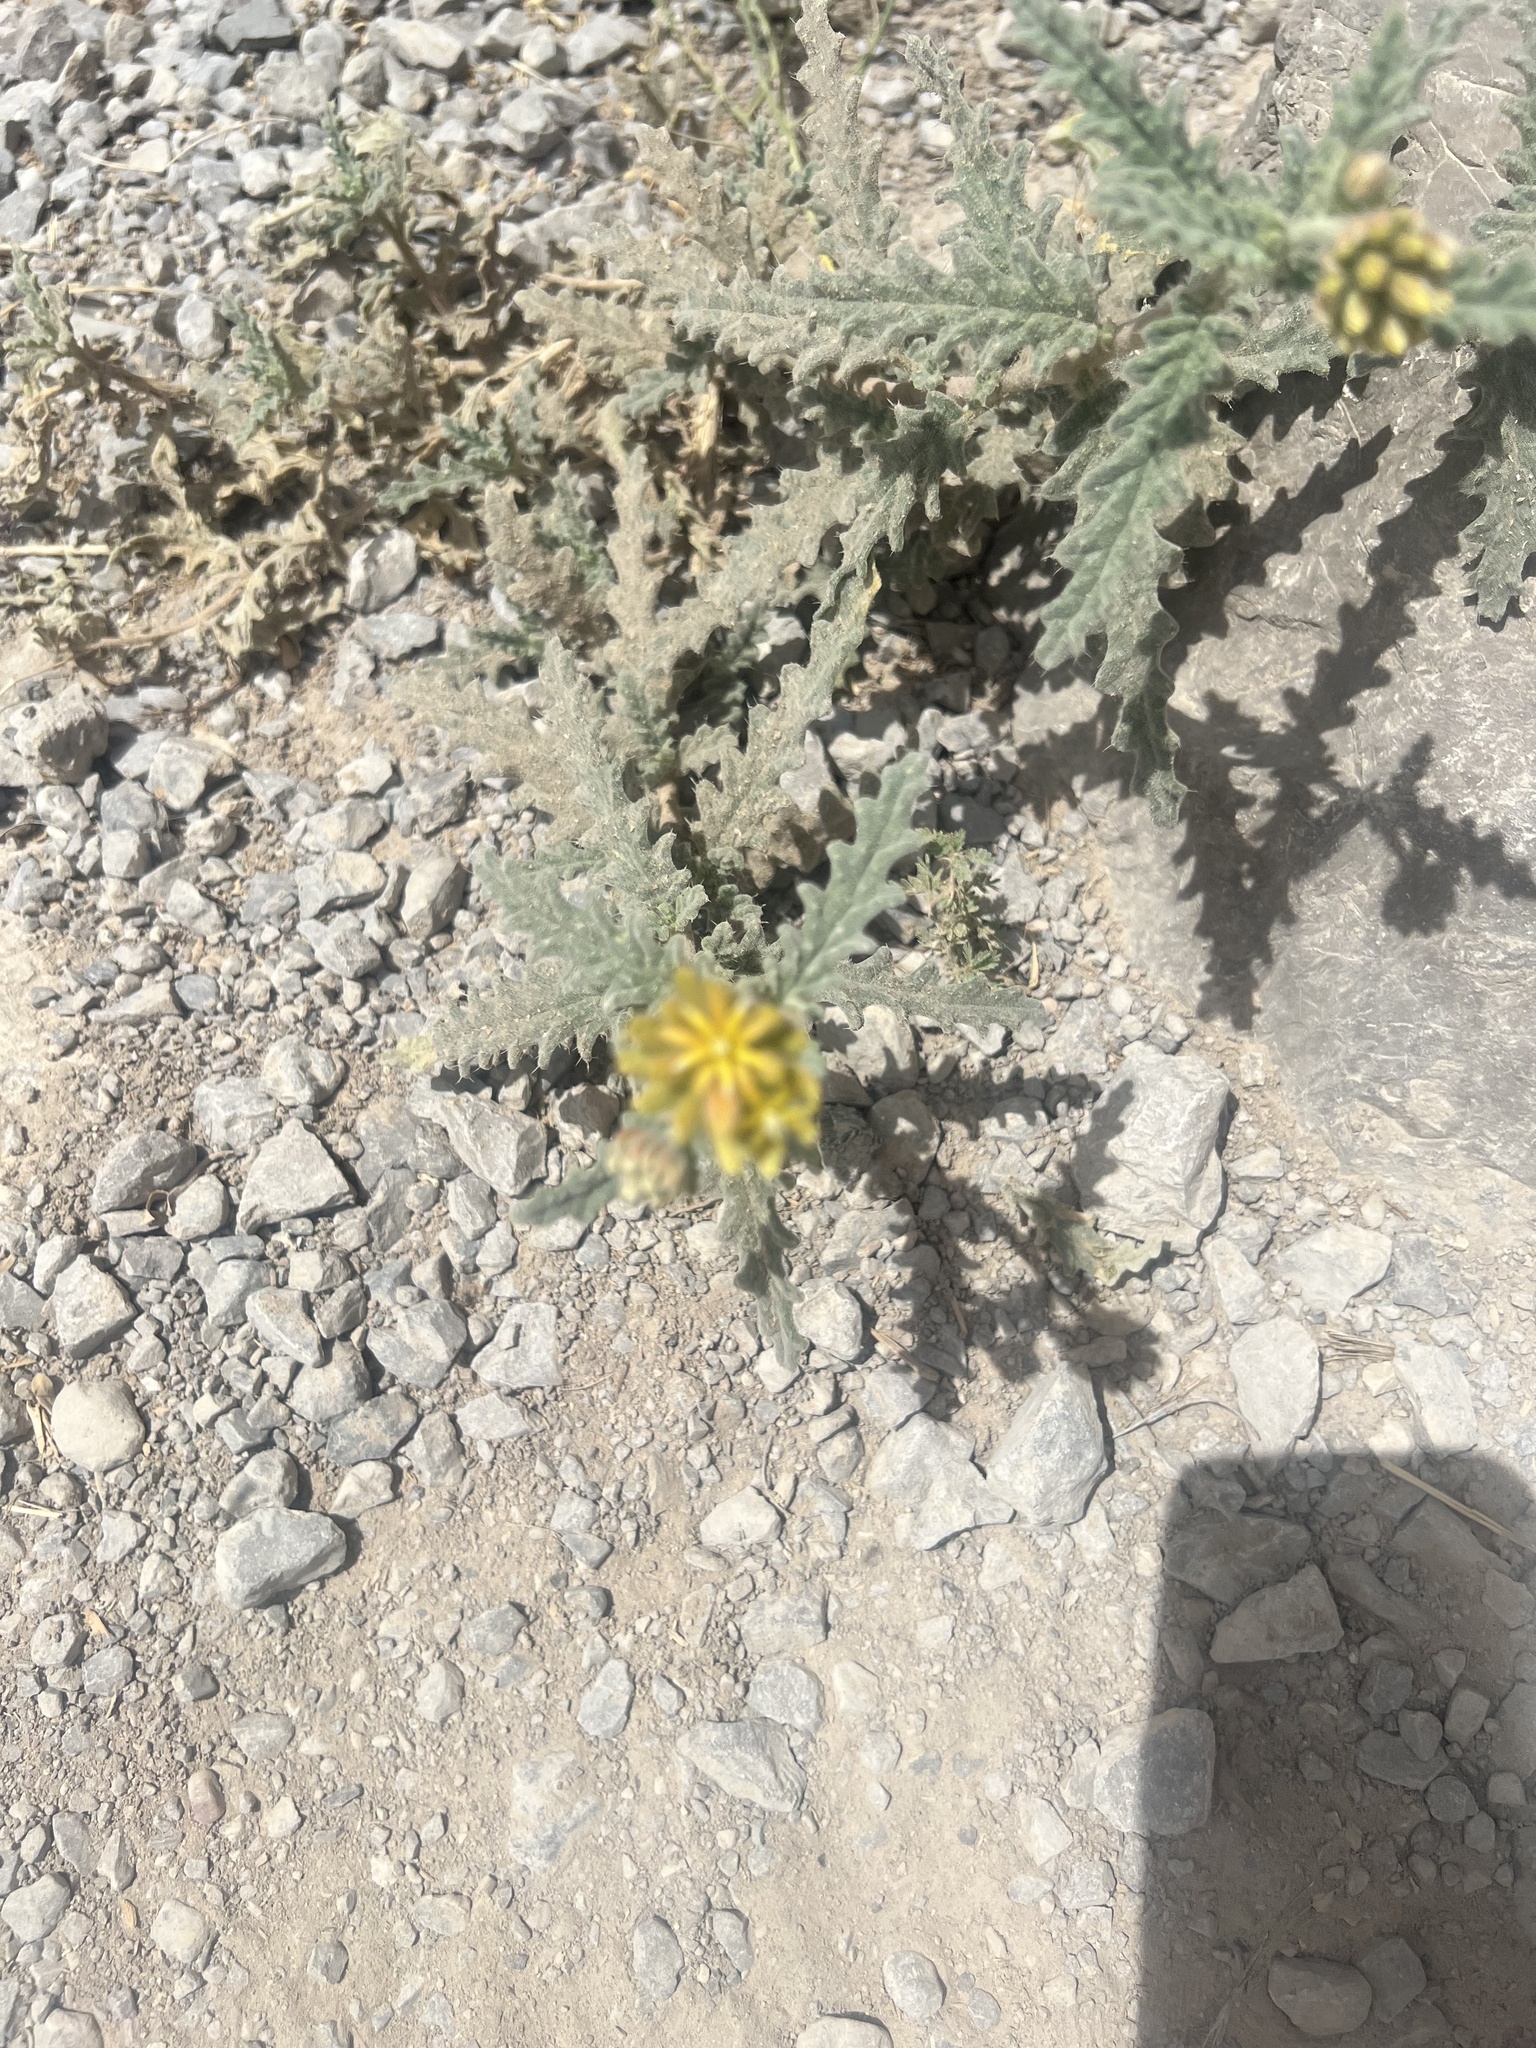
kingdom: Plantae
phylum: Tracheophyta
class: Magnoliopsida
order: Cornales
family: Loasaceae
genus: Cevallia
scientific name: Cevallia sinuata
